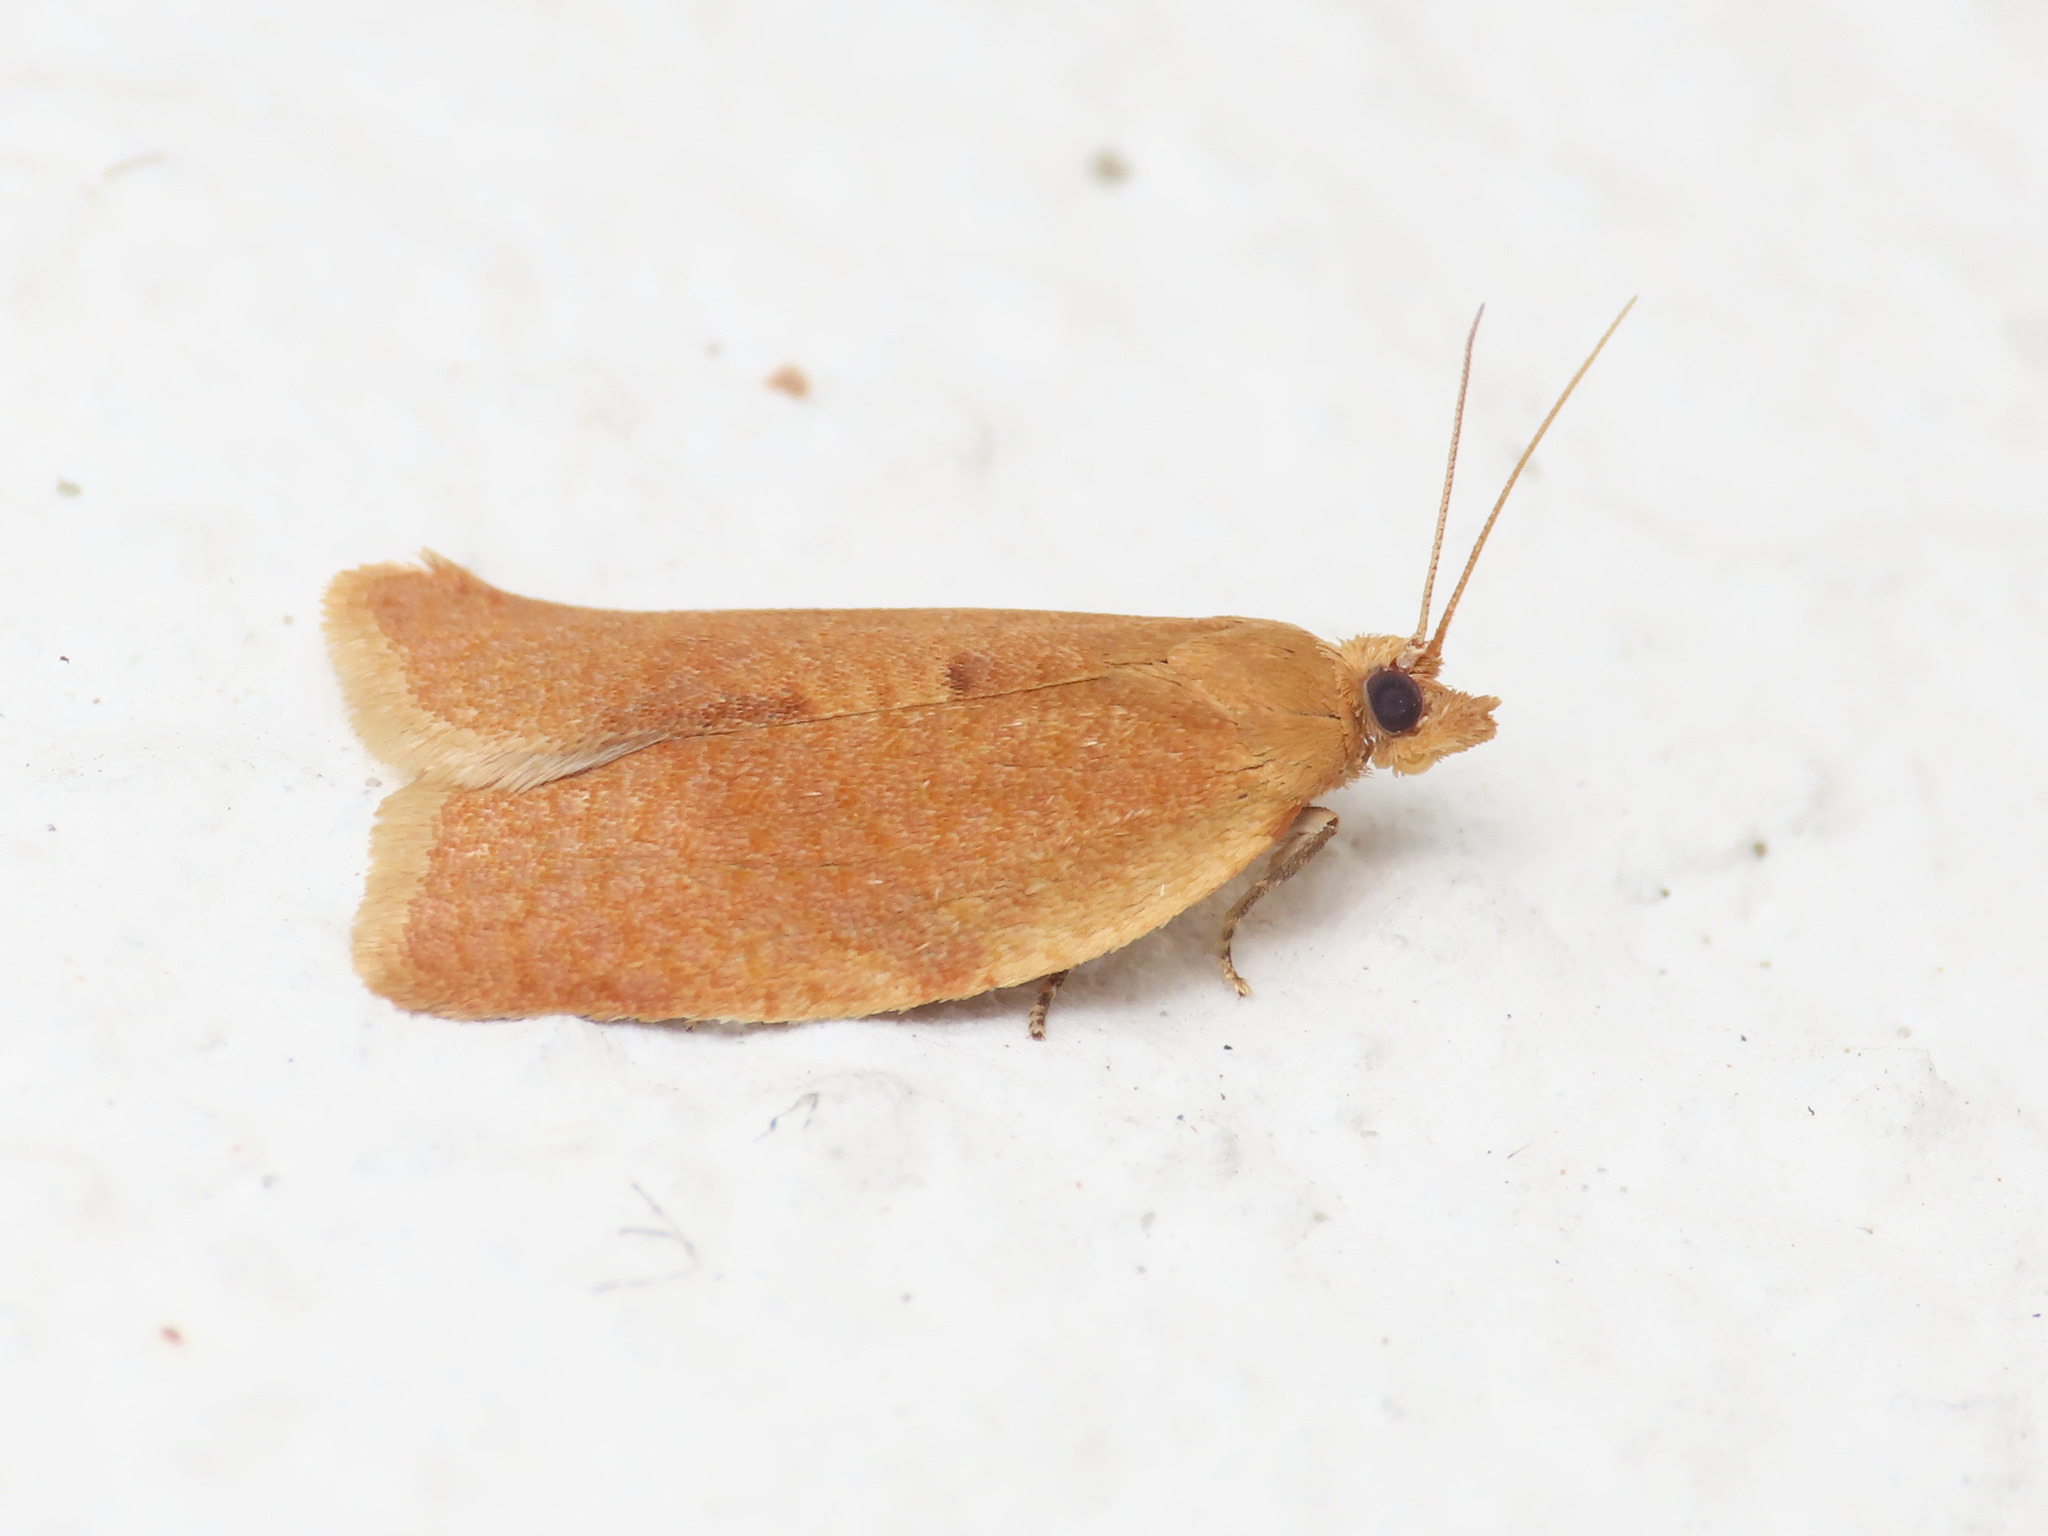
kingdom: Animalia
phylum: Arthropoda
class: Insecta
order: Lepidoptera
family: Tortricidae
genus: Clepsis
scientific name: Clepsis consimilana
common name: Privet tortrix
